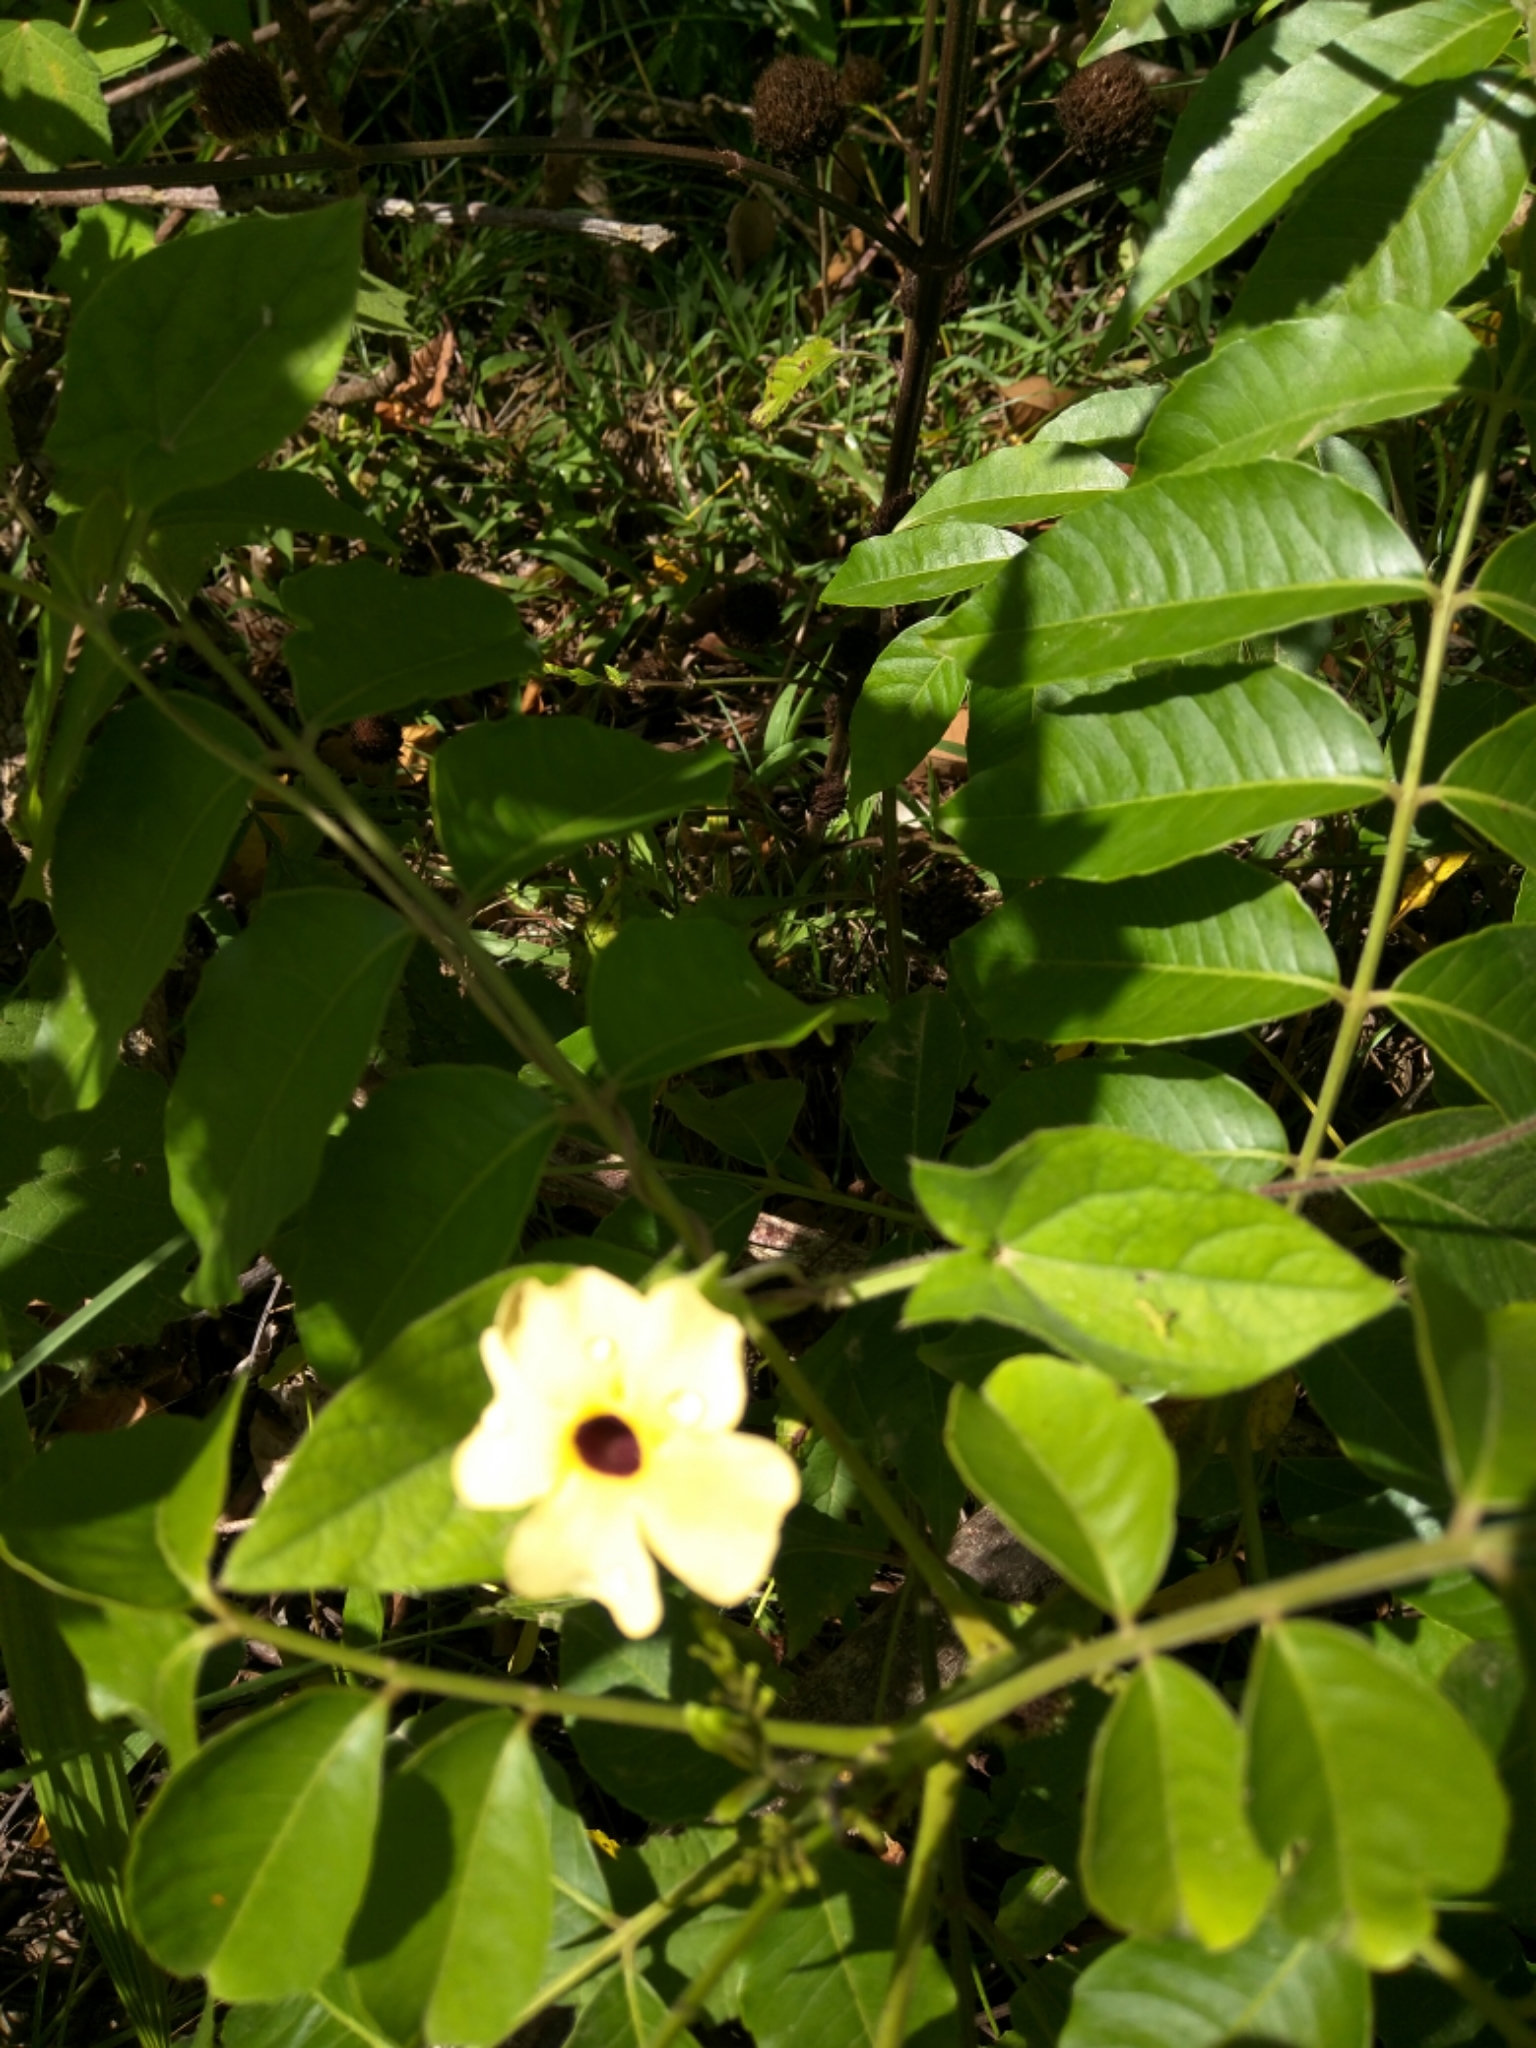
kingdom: Plantae
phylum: Tracheophyta
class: Magnoliopsida
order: Lamiales
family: Acanthaceae
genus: Thunbergia
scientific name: Thunbergia alata
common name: Blackeyed susan vine
